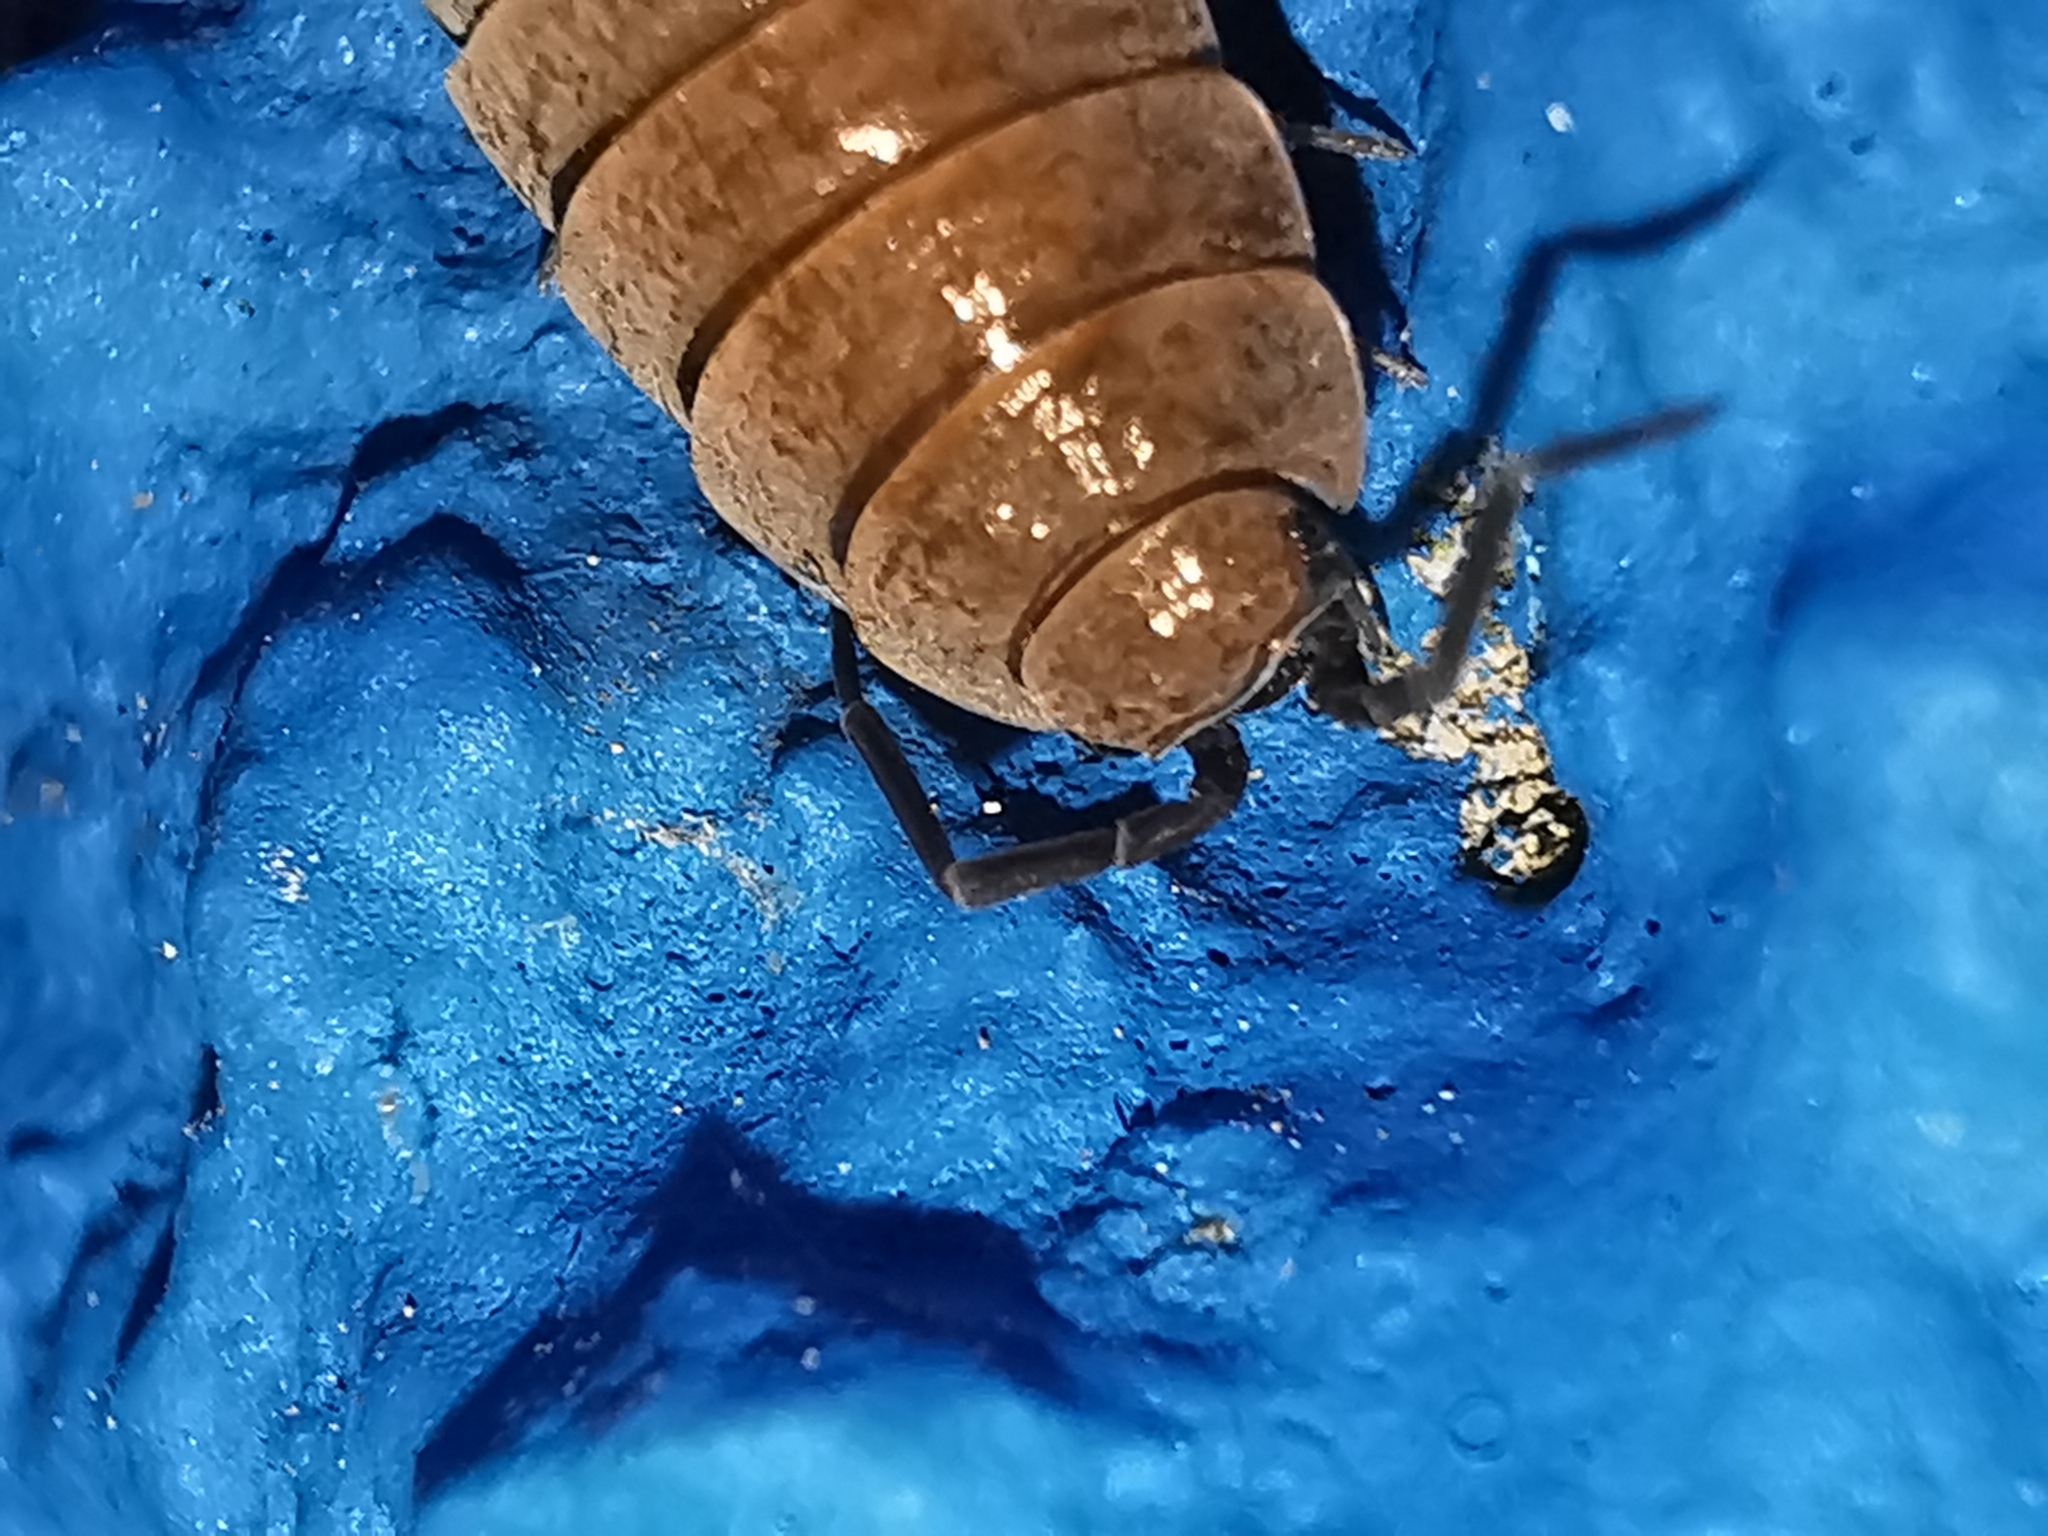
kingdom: Animalia
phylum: Arthropoda
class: Malacostraca
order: Isopoda
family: Porcellionidae
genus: Porcellionides
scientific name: Porcellionides pruinosus
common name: Plum woodlouse
